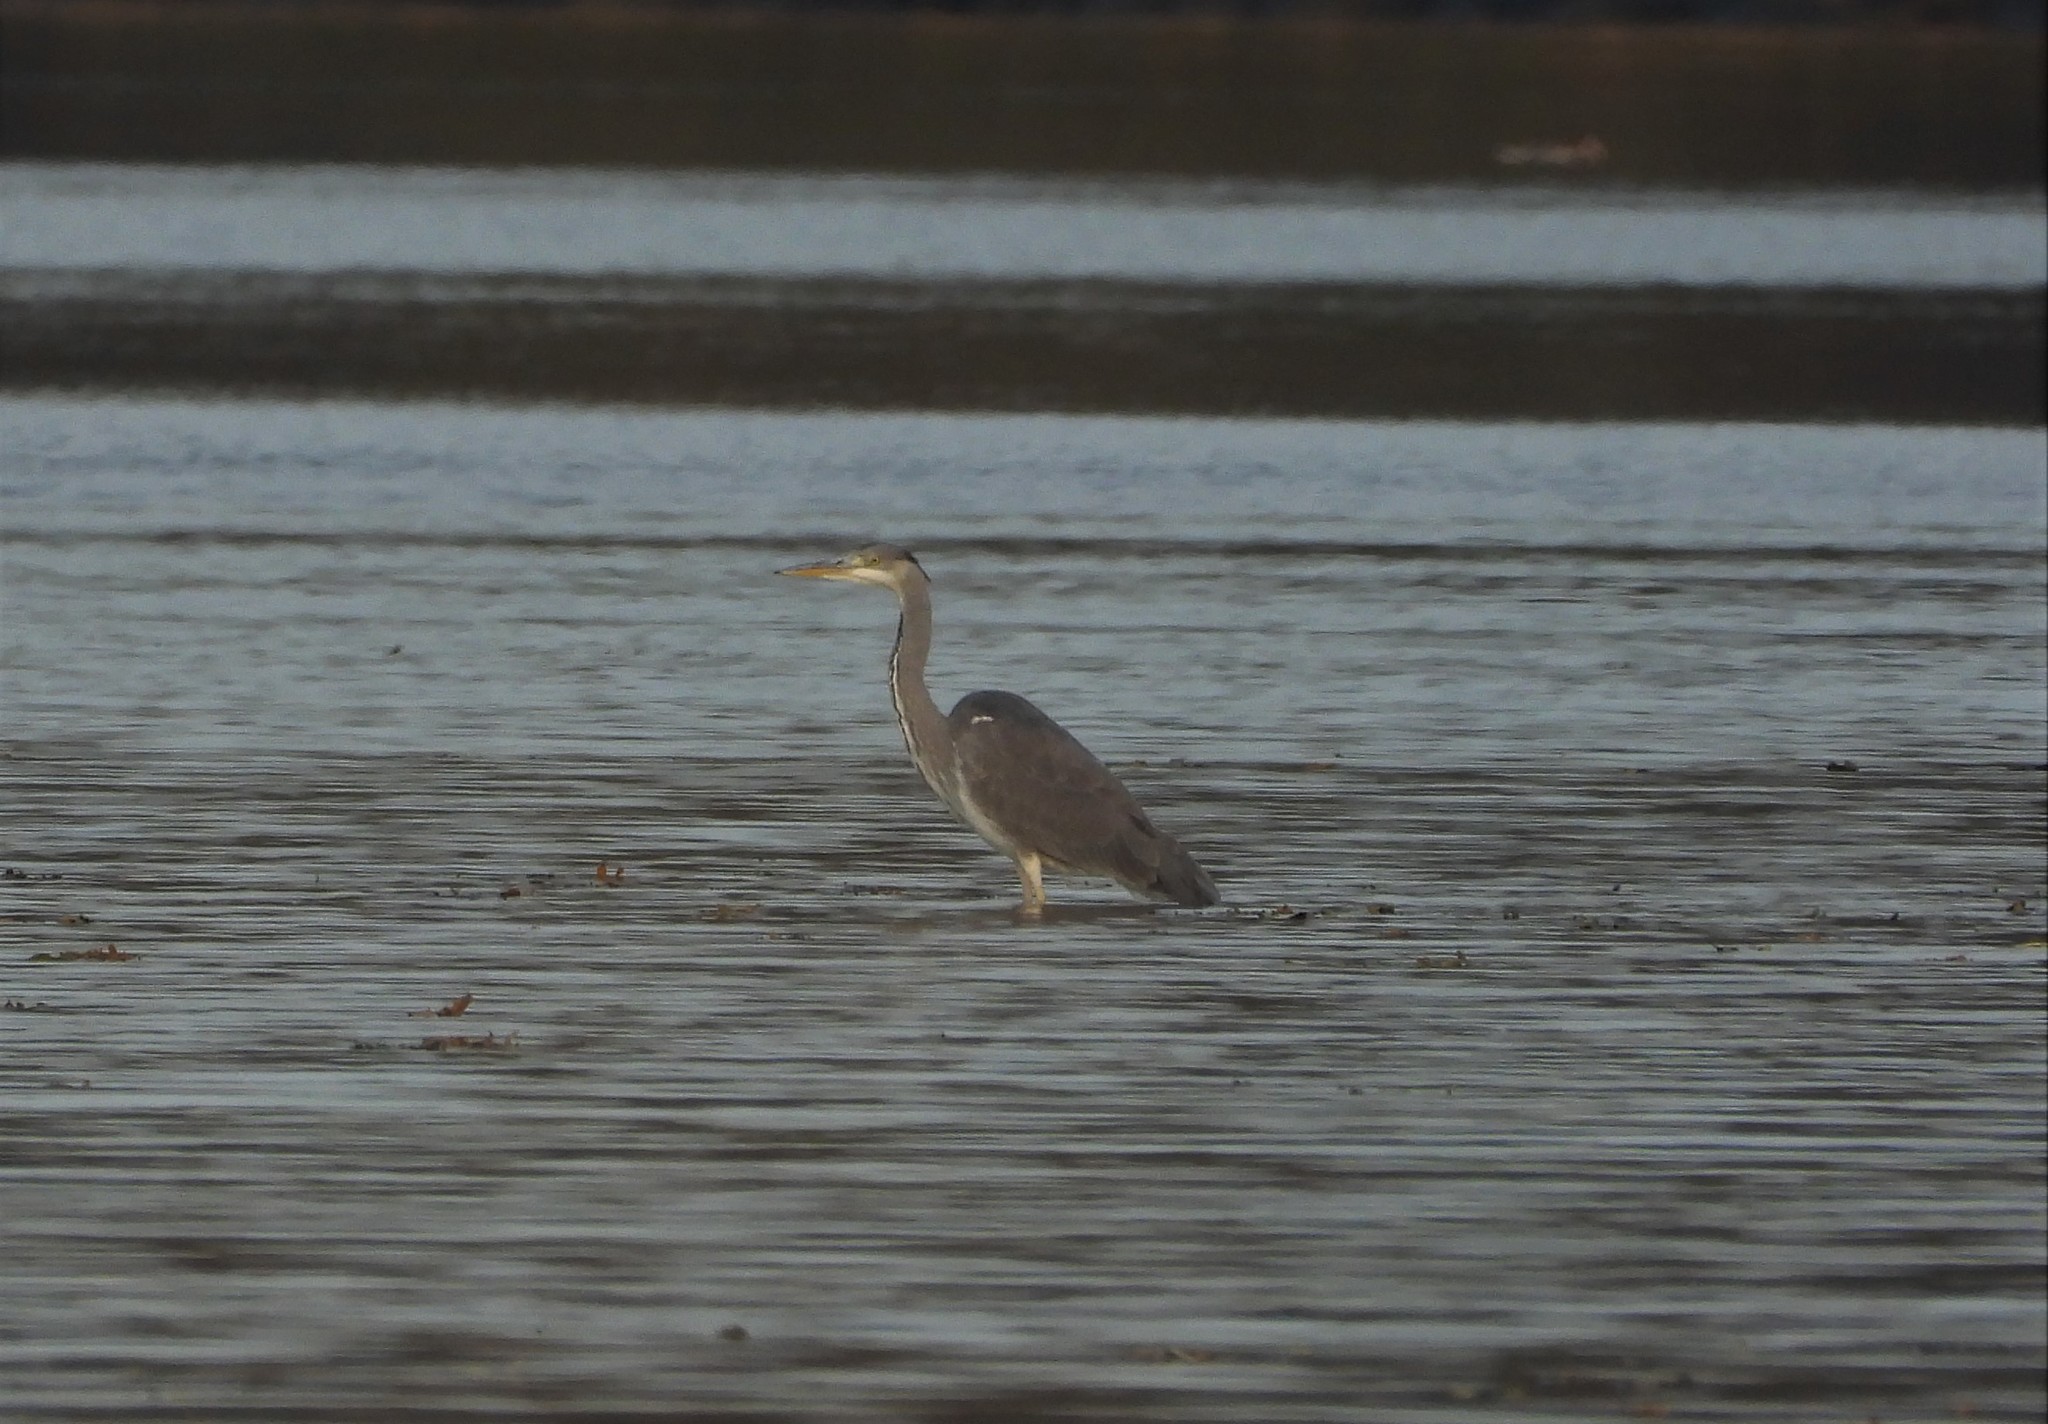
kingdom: Animalia
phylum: Chordata
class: Aves
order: Pelecaniformes
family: Ardeidae
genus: Ardea
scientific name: Ardea cinerea
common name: Grey heron
